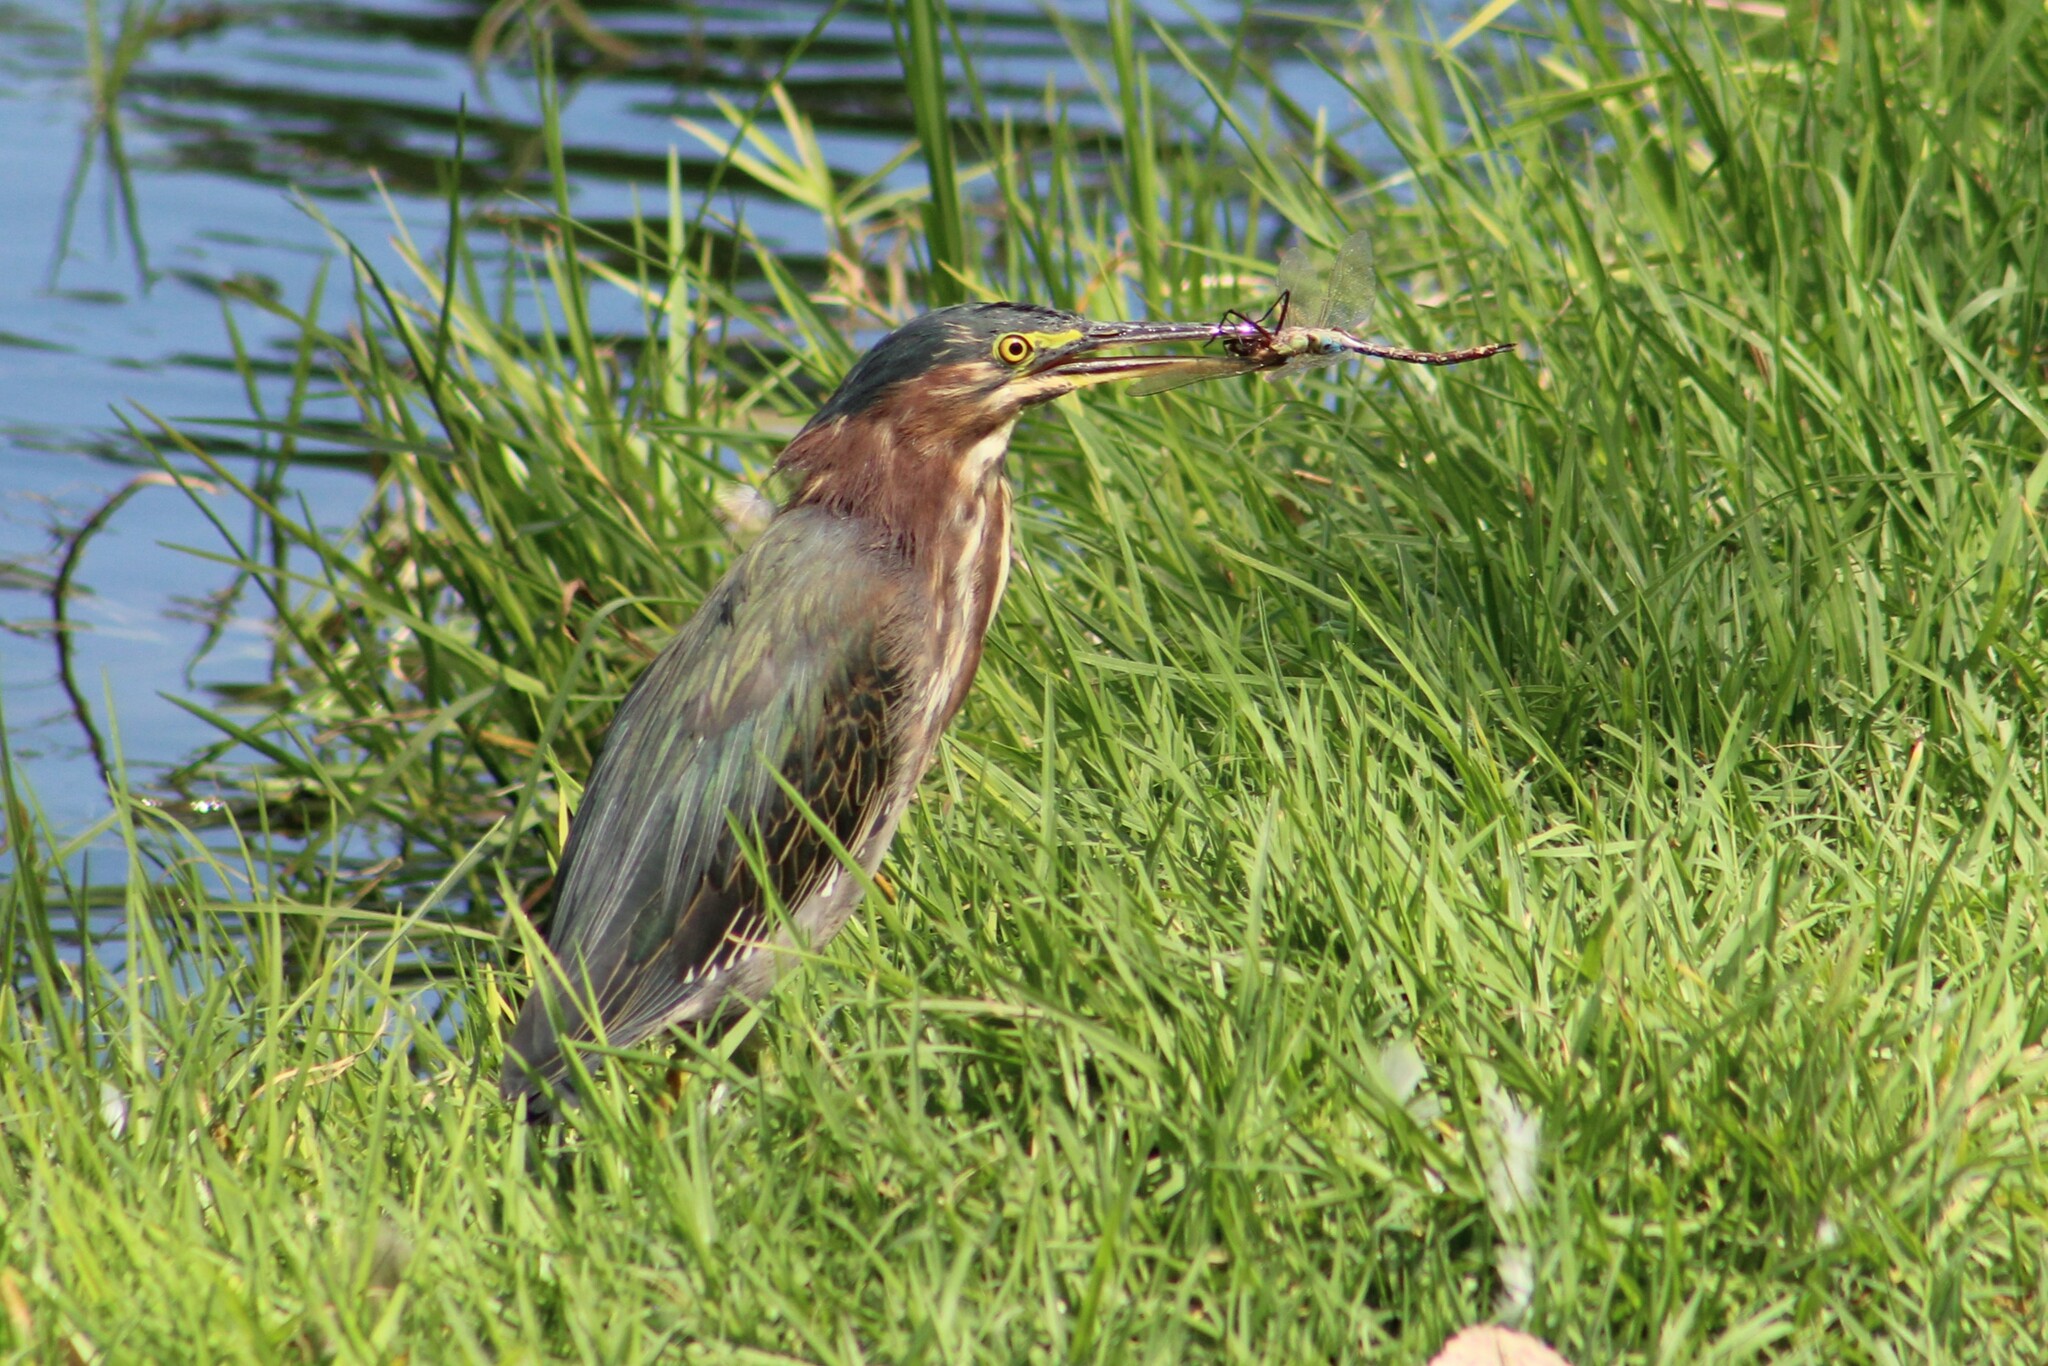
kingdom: Animalia
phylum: Chordata
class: Aves
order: Pelecaniformes
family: Ardeidae
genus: Butorides
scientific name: Butorides virescens
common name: Green heron
